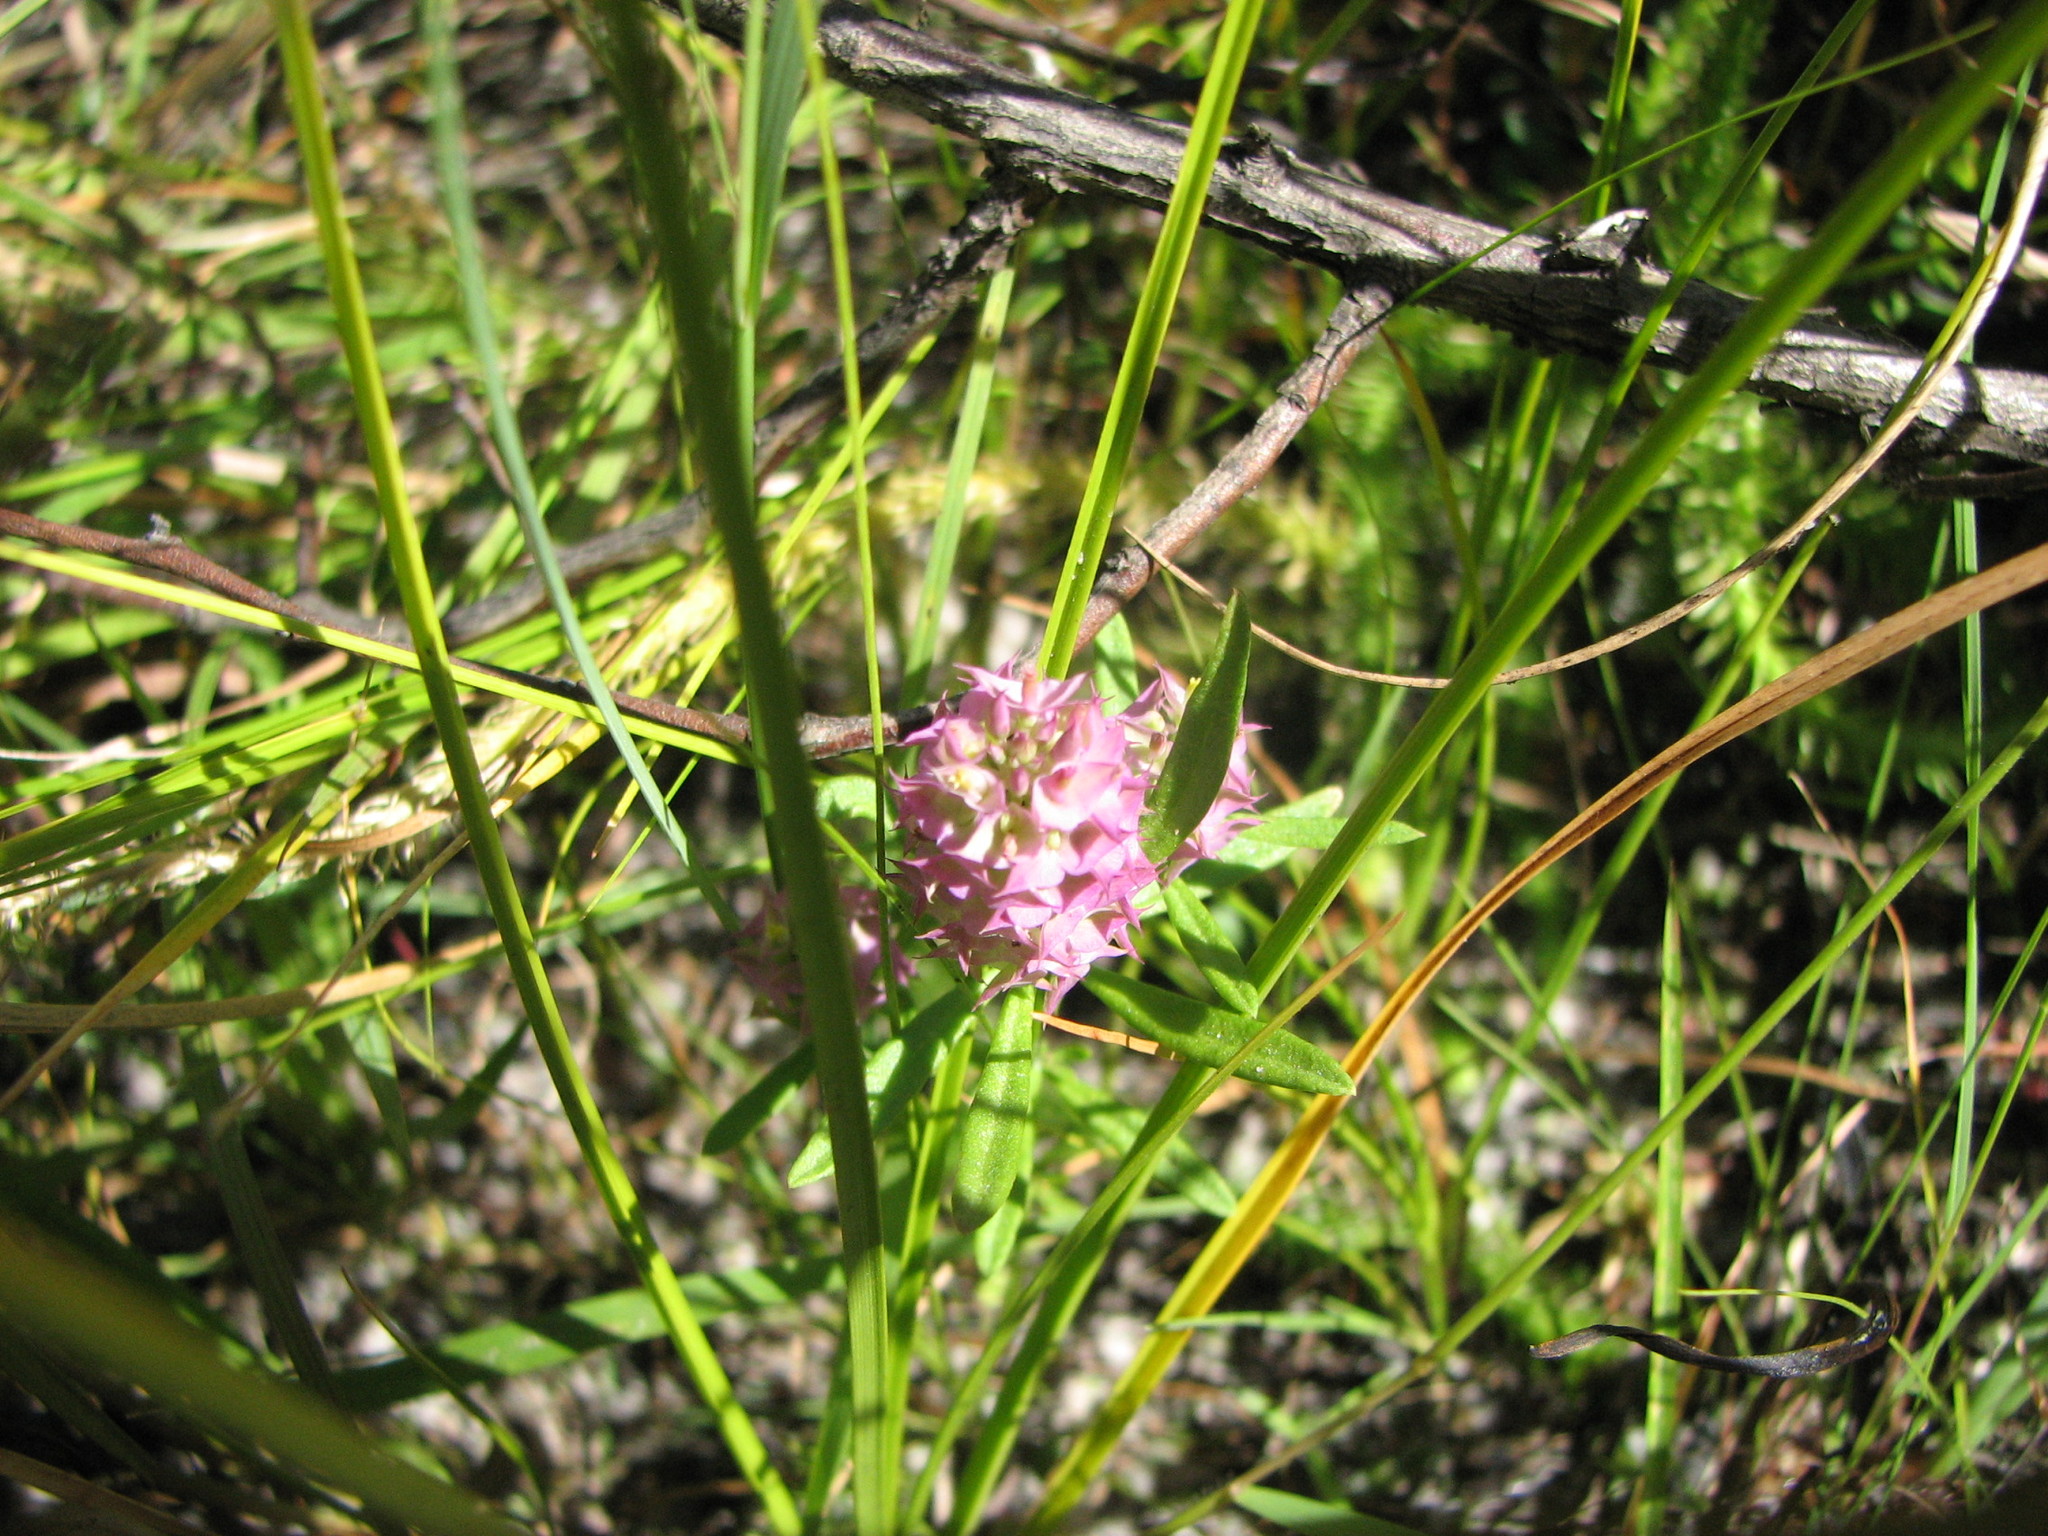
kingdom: Plantae
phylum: Tracheophyta
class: Magnoliopsida
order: Fabales
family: Polygalaceae
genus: Polygala
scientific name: Polygala cruciata
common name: Drumheads
